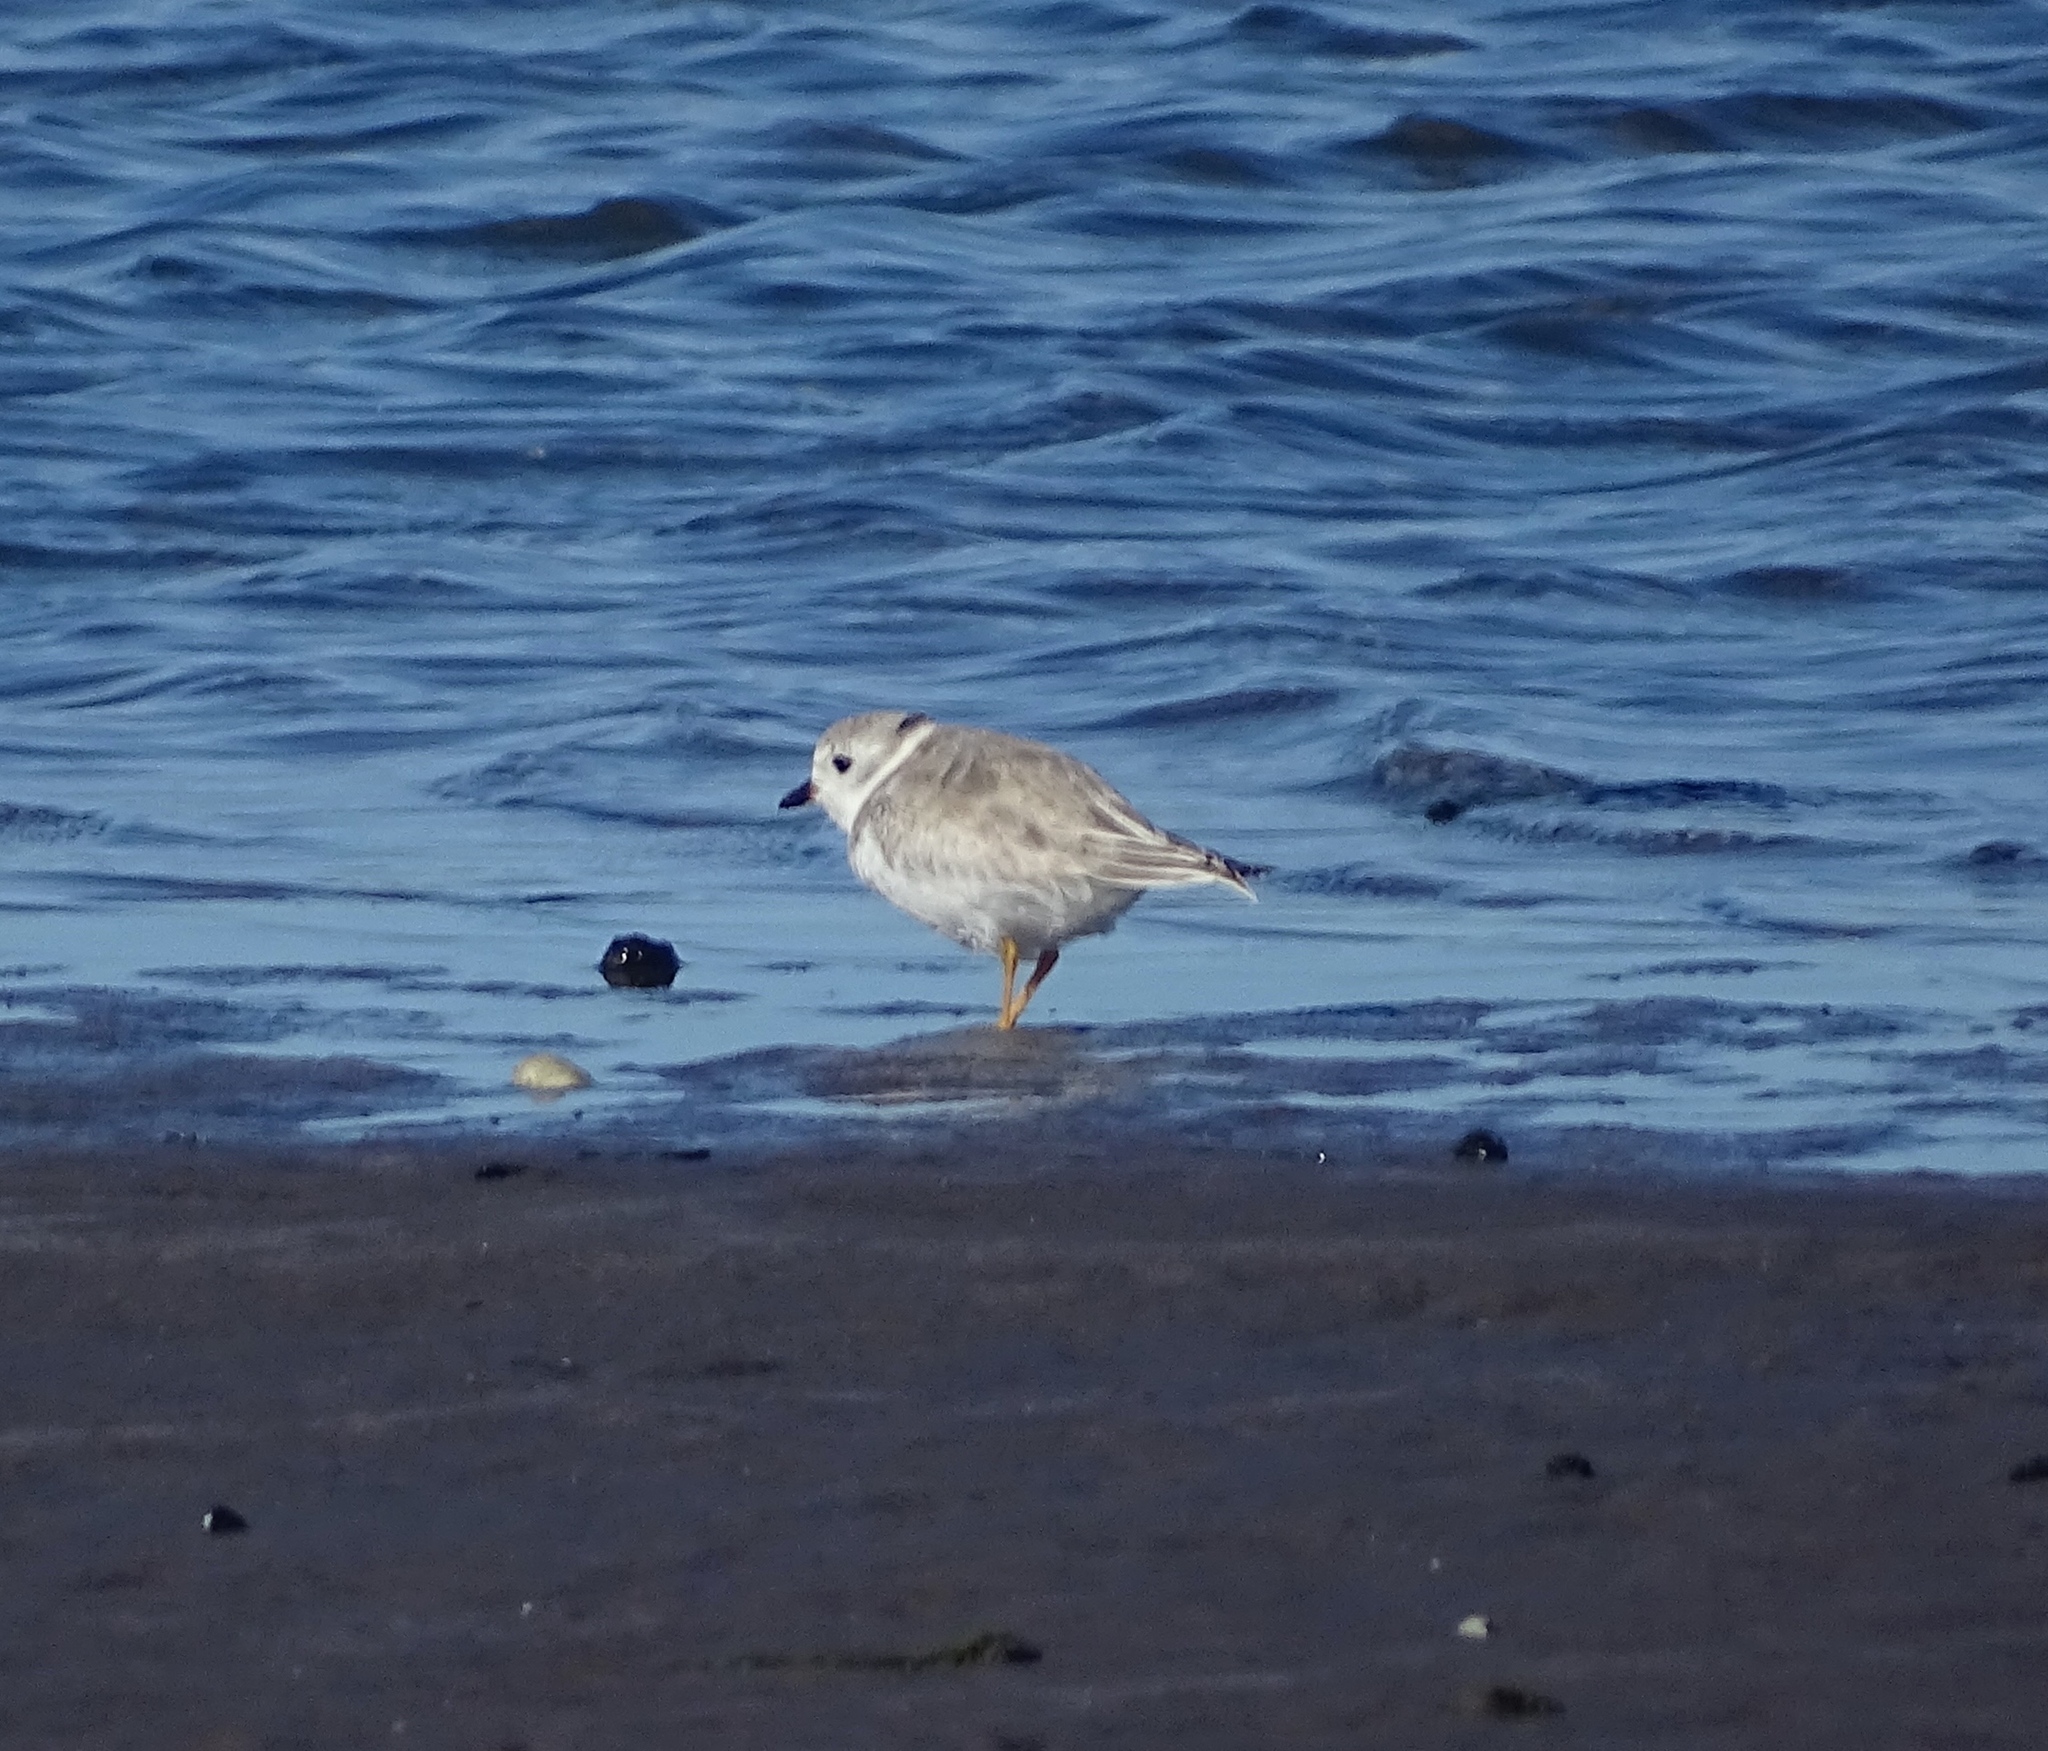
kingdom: Animalia
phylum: Chordata
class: Aves
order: Charadriiformes
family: Charadriidae
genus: Charadrius
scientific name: Charadrius melodus
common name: Piping plover
